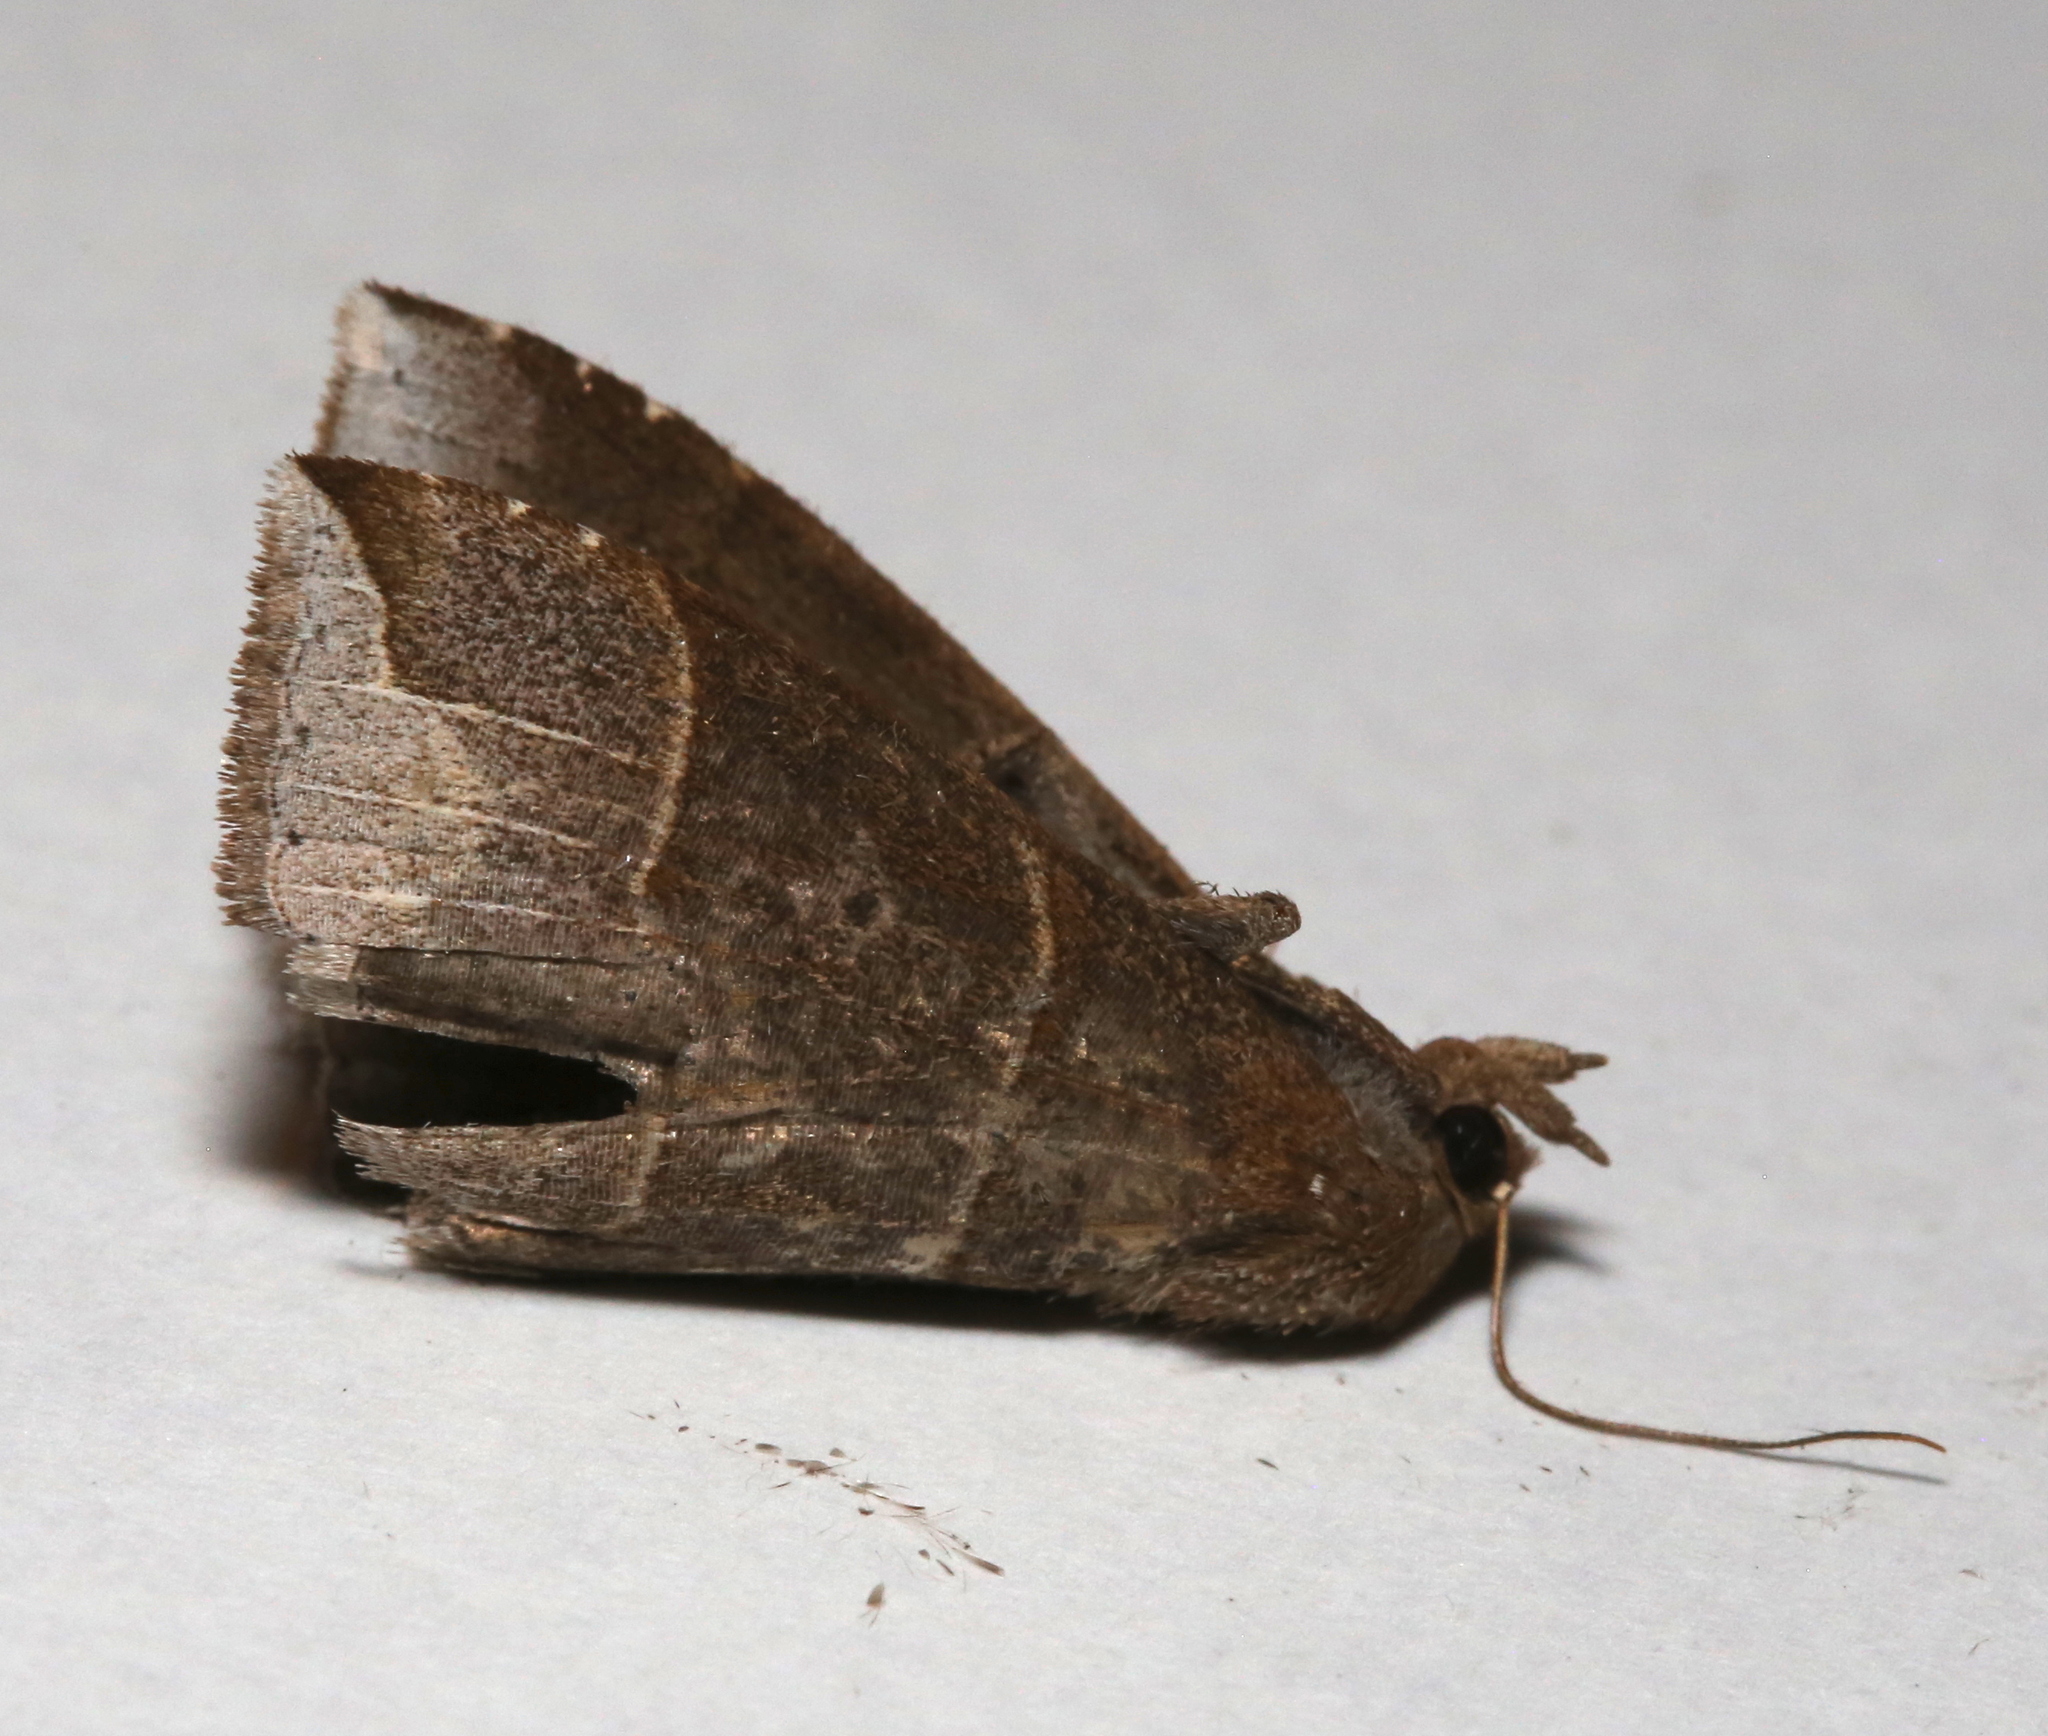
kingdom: Animalia
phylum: Arthropoda
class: Insecta
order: Lepidoptera
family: Erebidae
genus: Parallelia
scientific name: Parallelia bistriaris
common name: Maple looper moth
